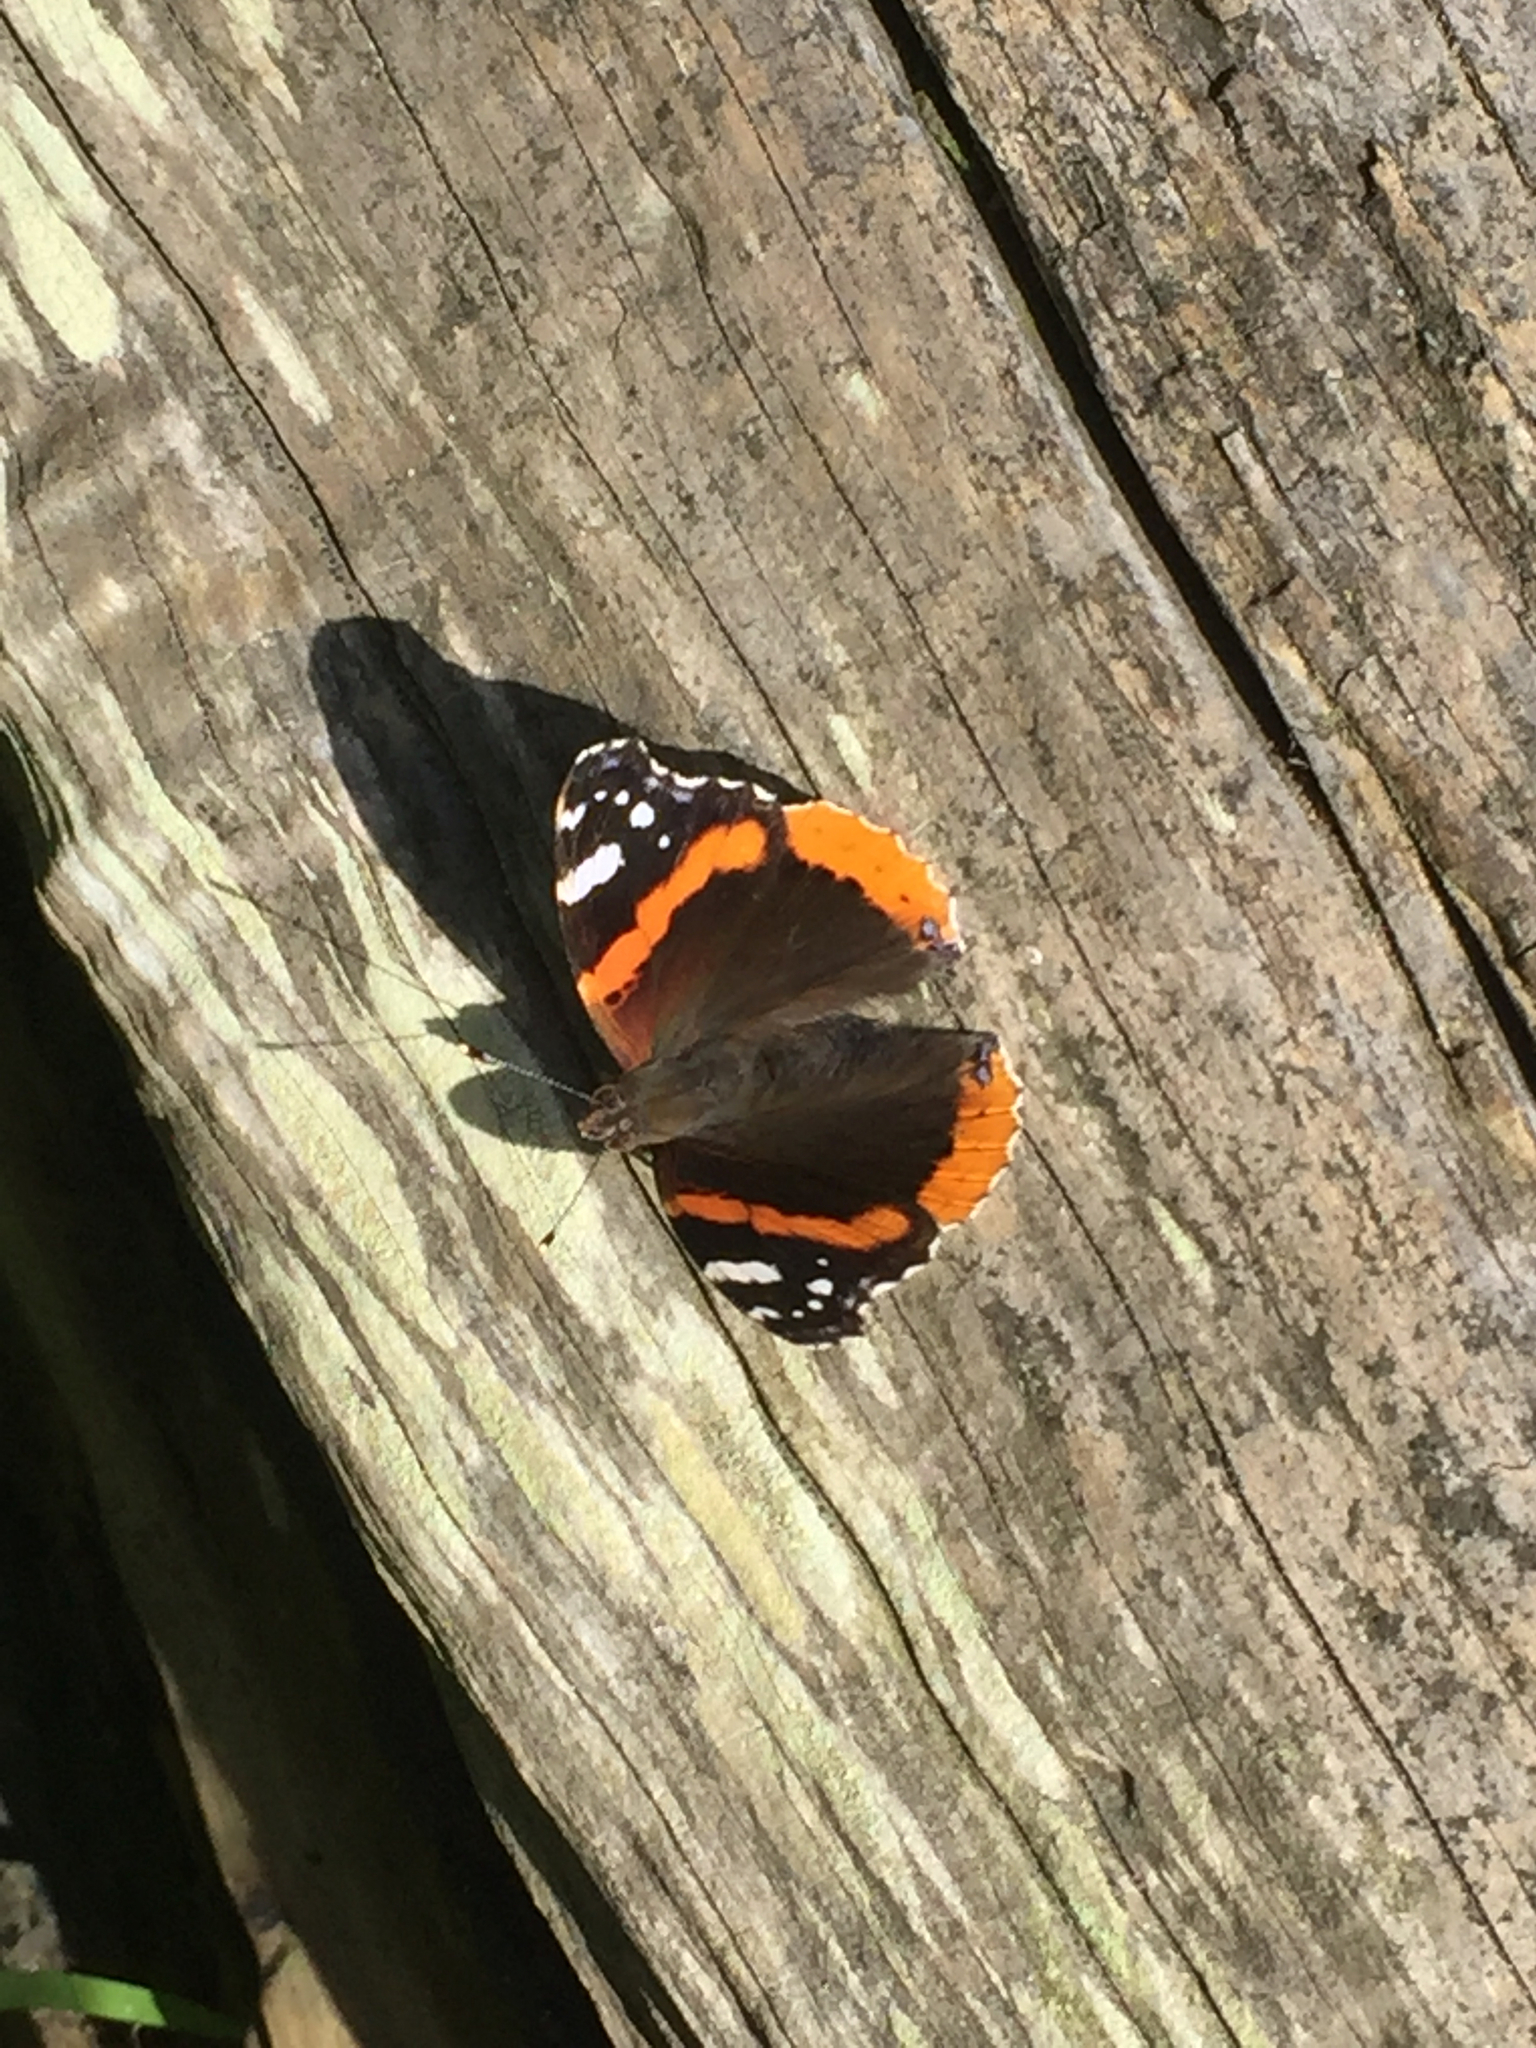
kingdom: Animalia
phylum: Arthropoda
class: Insecta
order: Lepidoptera
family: Nymphalidae
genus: Vanessa
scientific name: Vanessa atalanta
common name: Red admiral
